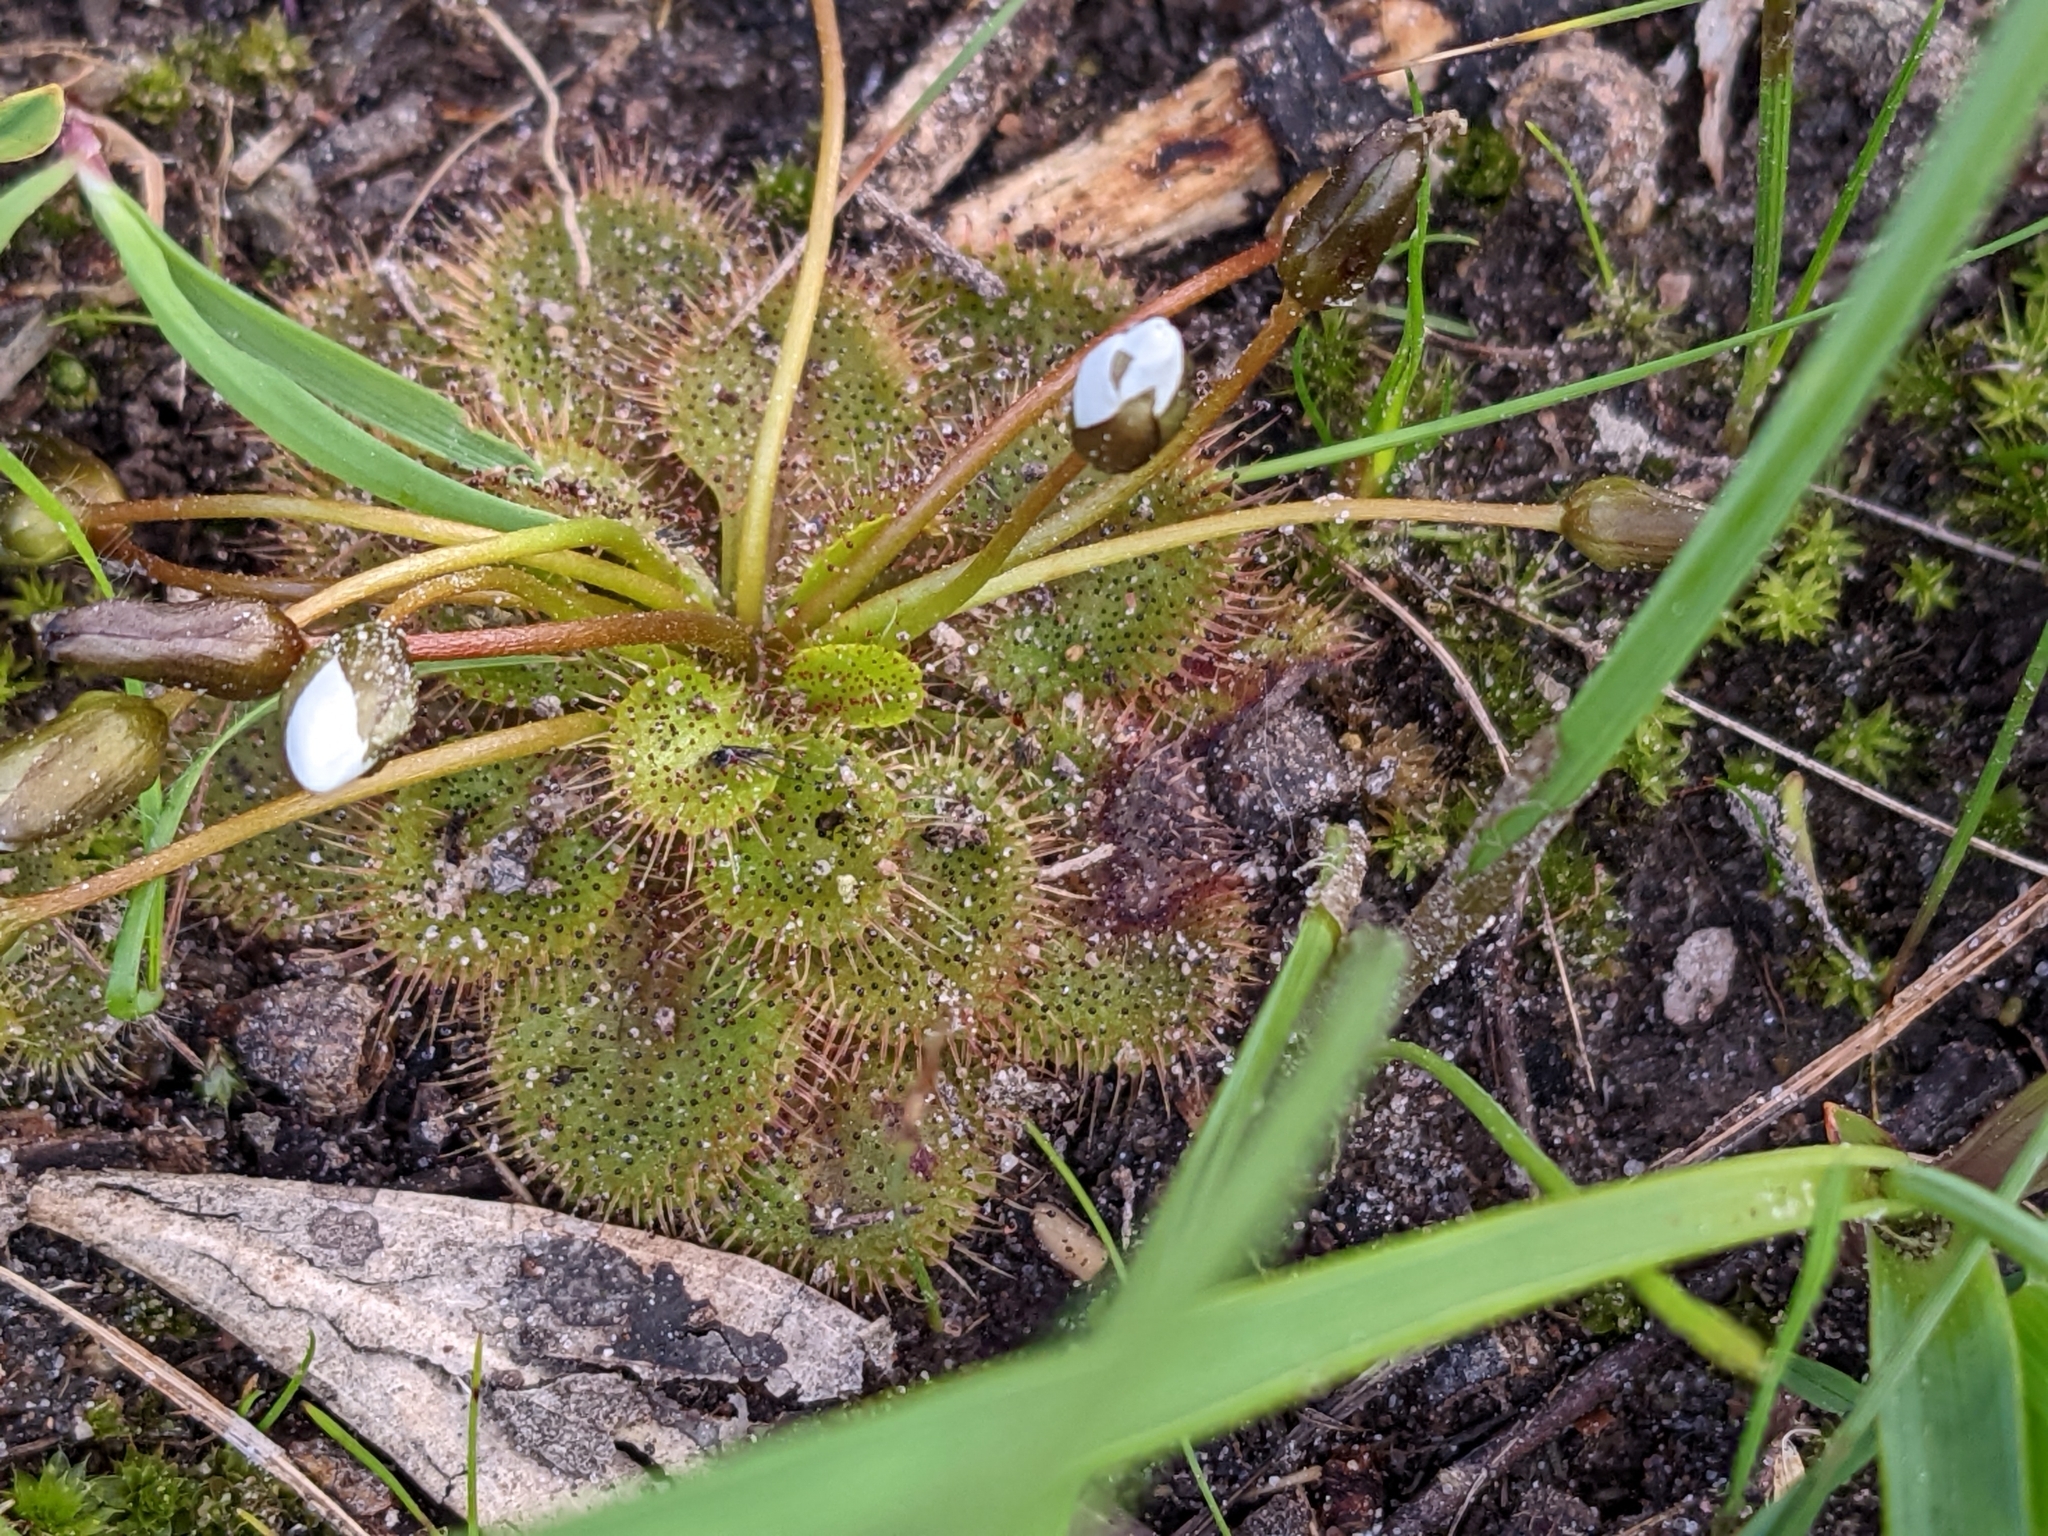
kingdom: Plantae
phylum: Tracheophyta
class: Magnoliopsida
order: Caryophyllales
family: Droseraceae
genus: Drosera
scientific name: Drosera whittakeri
